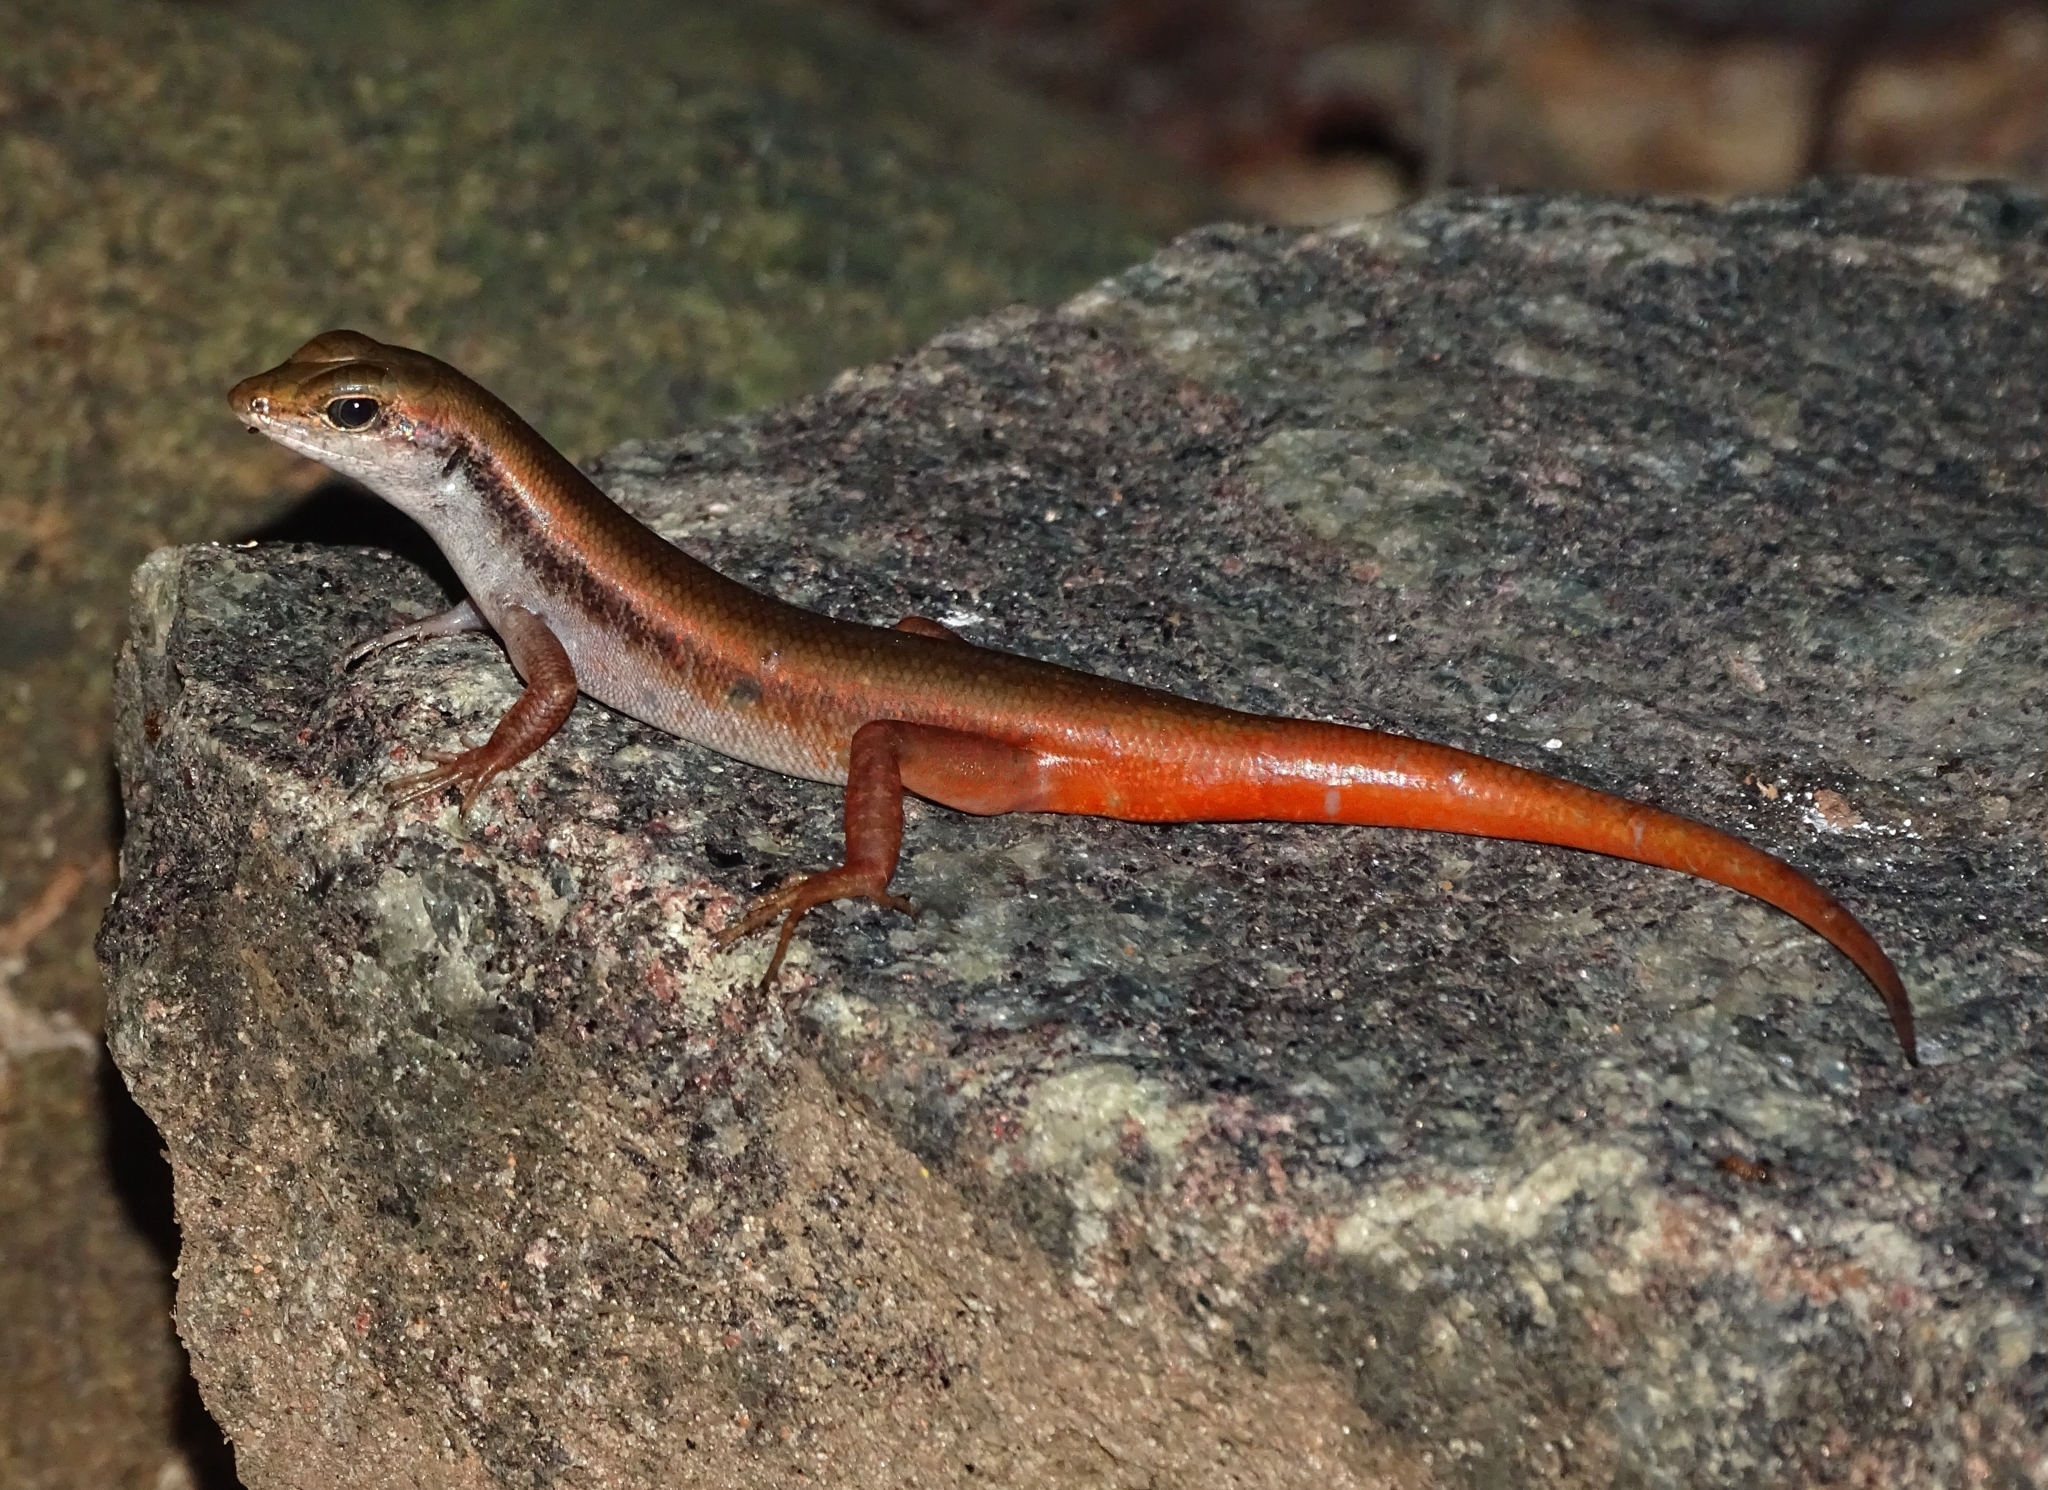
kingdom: Animalia
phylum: Chordata
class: Squamata
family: Scincidae
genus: Sphenomorphus
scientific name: Sphenomorphus dussumieri
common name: Dussumier's forest skink
